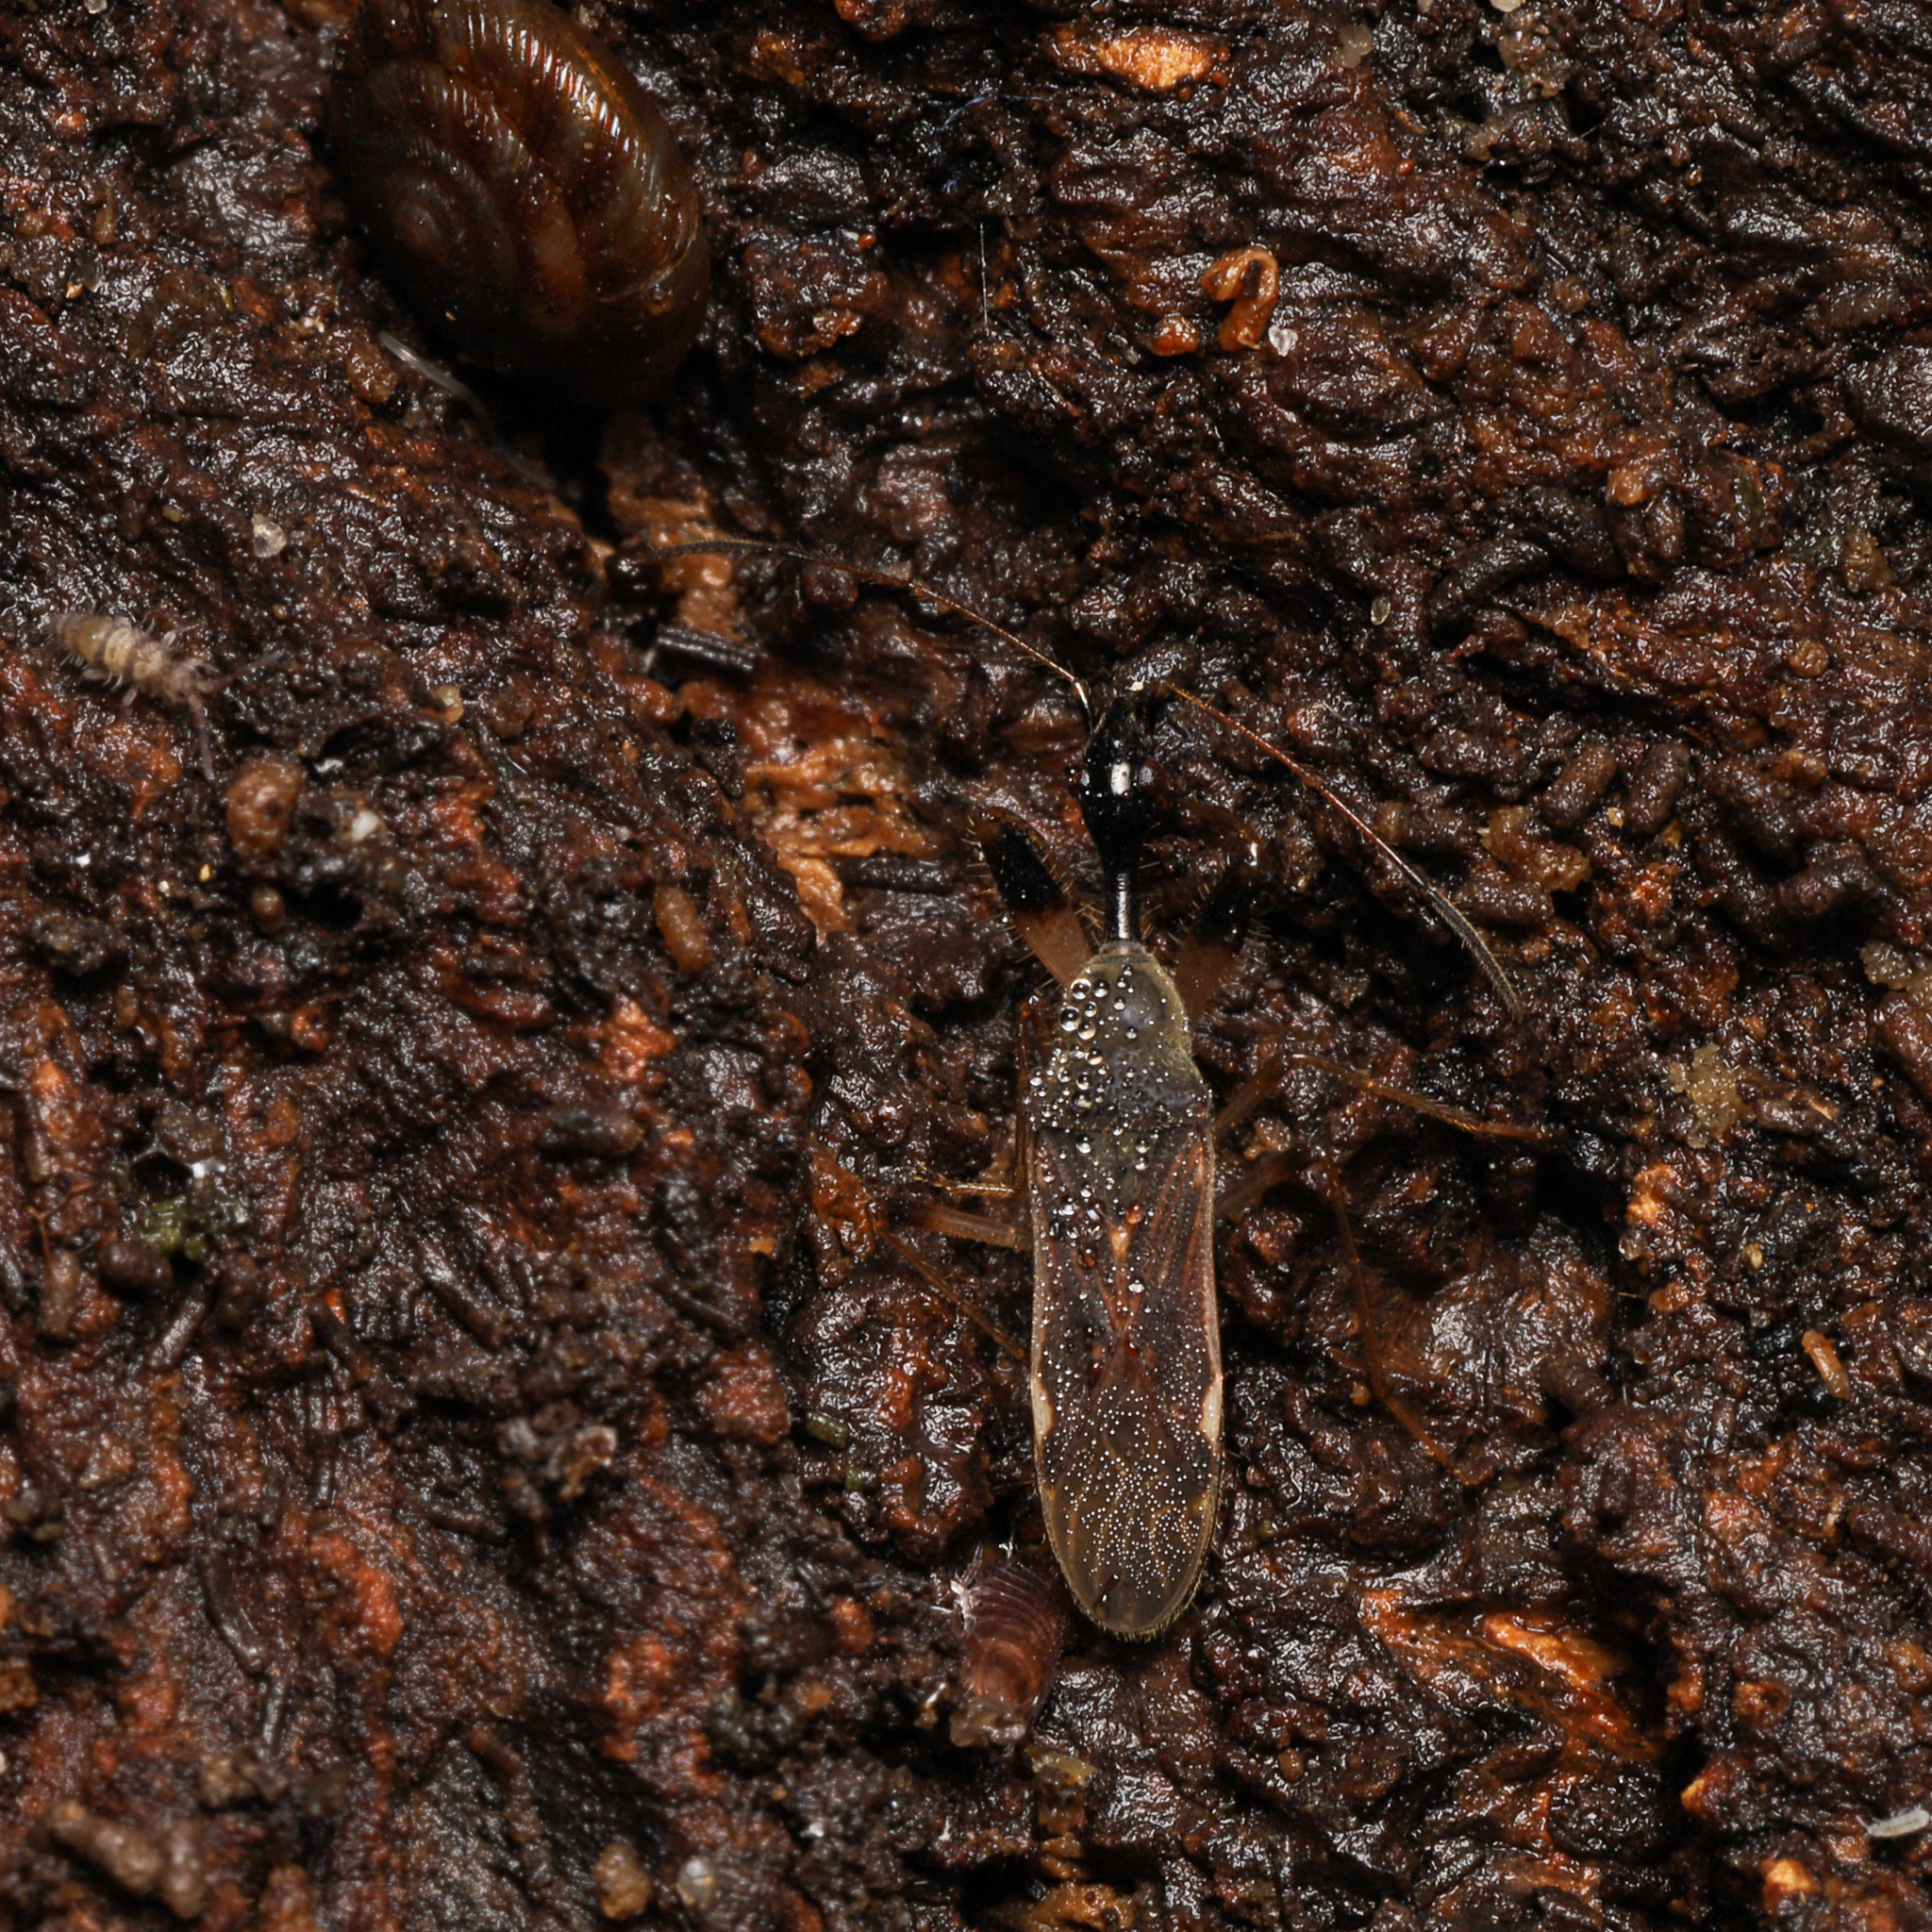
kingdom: Animalia
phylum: Arthropoda
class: Insecta
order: Hemiptera
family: Rhyparochromidae
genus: Myodocha
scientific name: Myodocha serripes
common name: Long-necked seed bug
